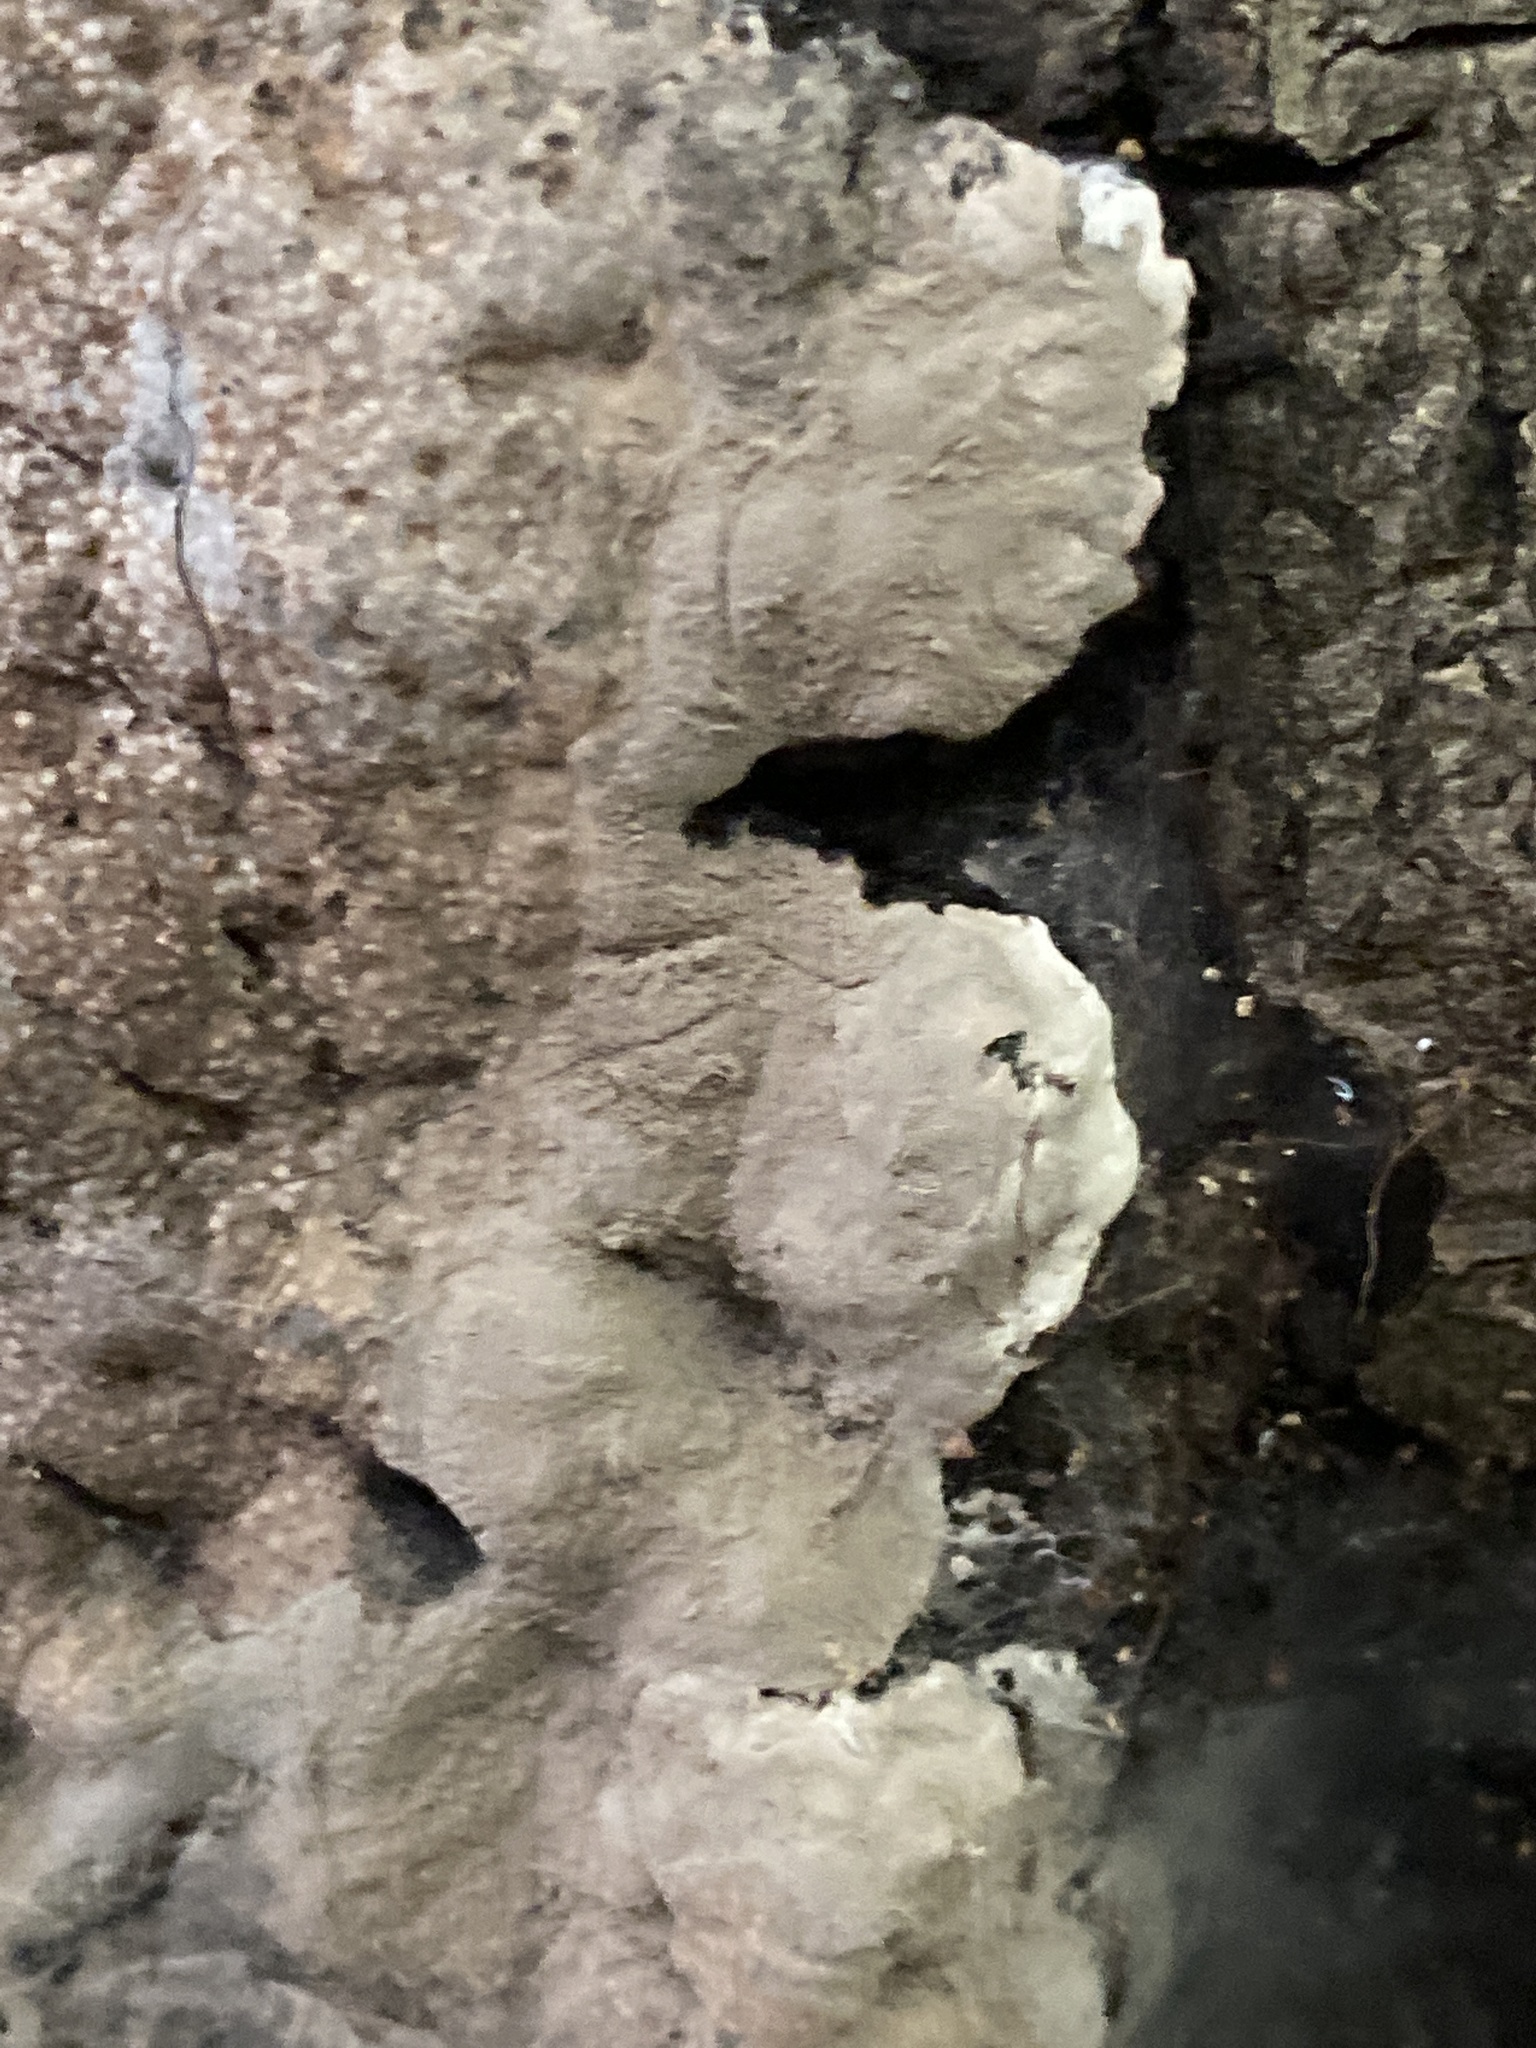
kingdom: Fungi
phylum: Ascomycota
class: Sordariomycetes
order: Xylariales
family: Xylariaceae
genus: Kretzschmaria
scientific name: Kretzschmaria deusta
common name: Brittle cinder
